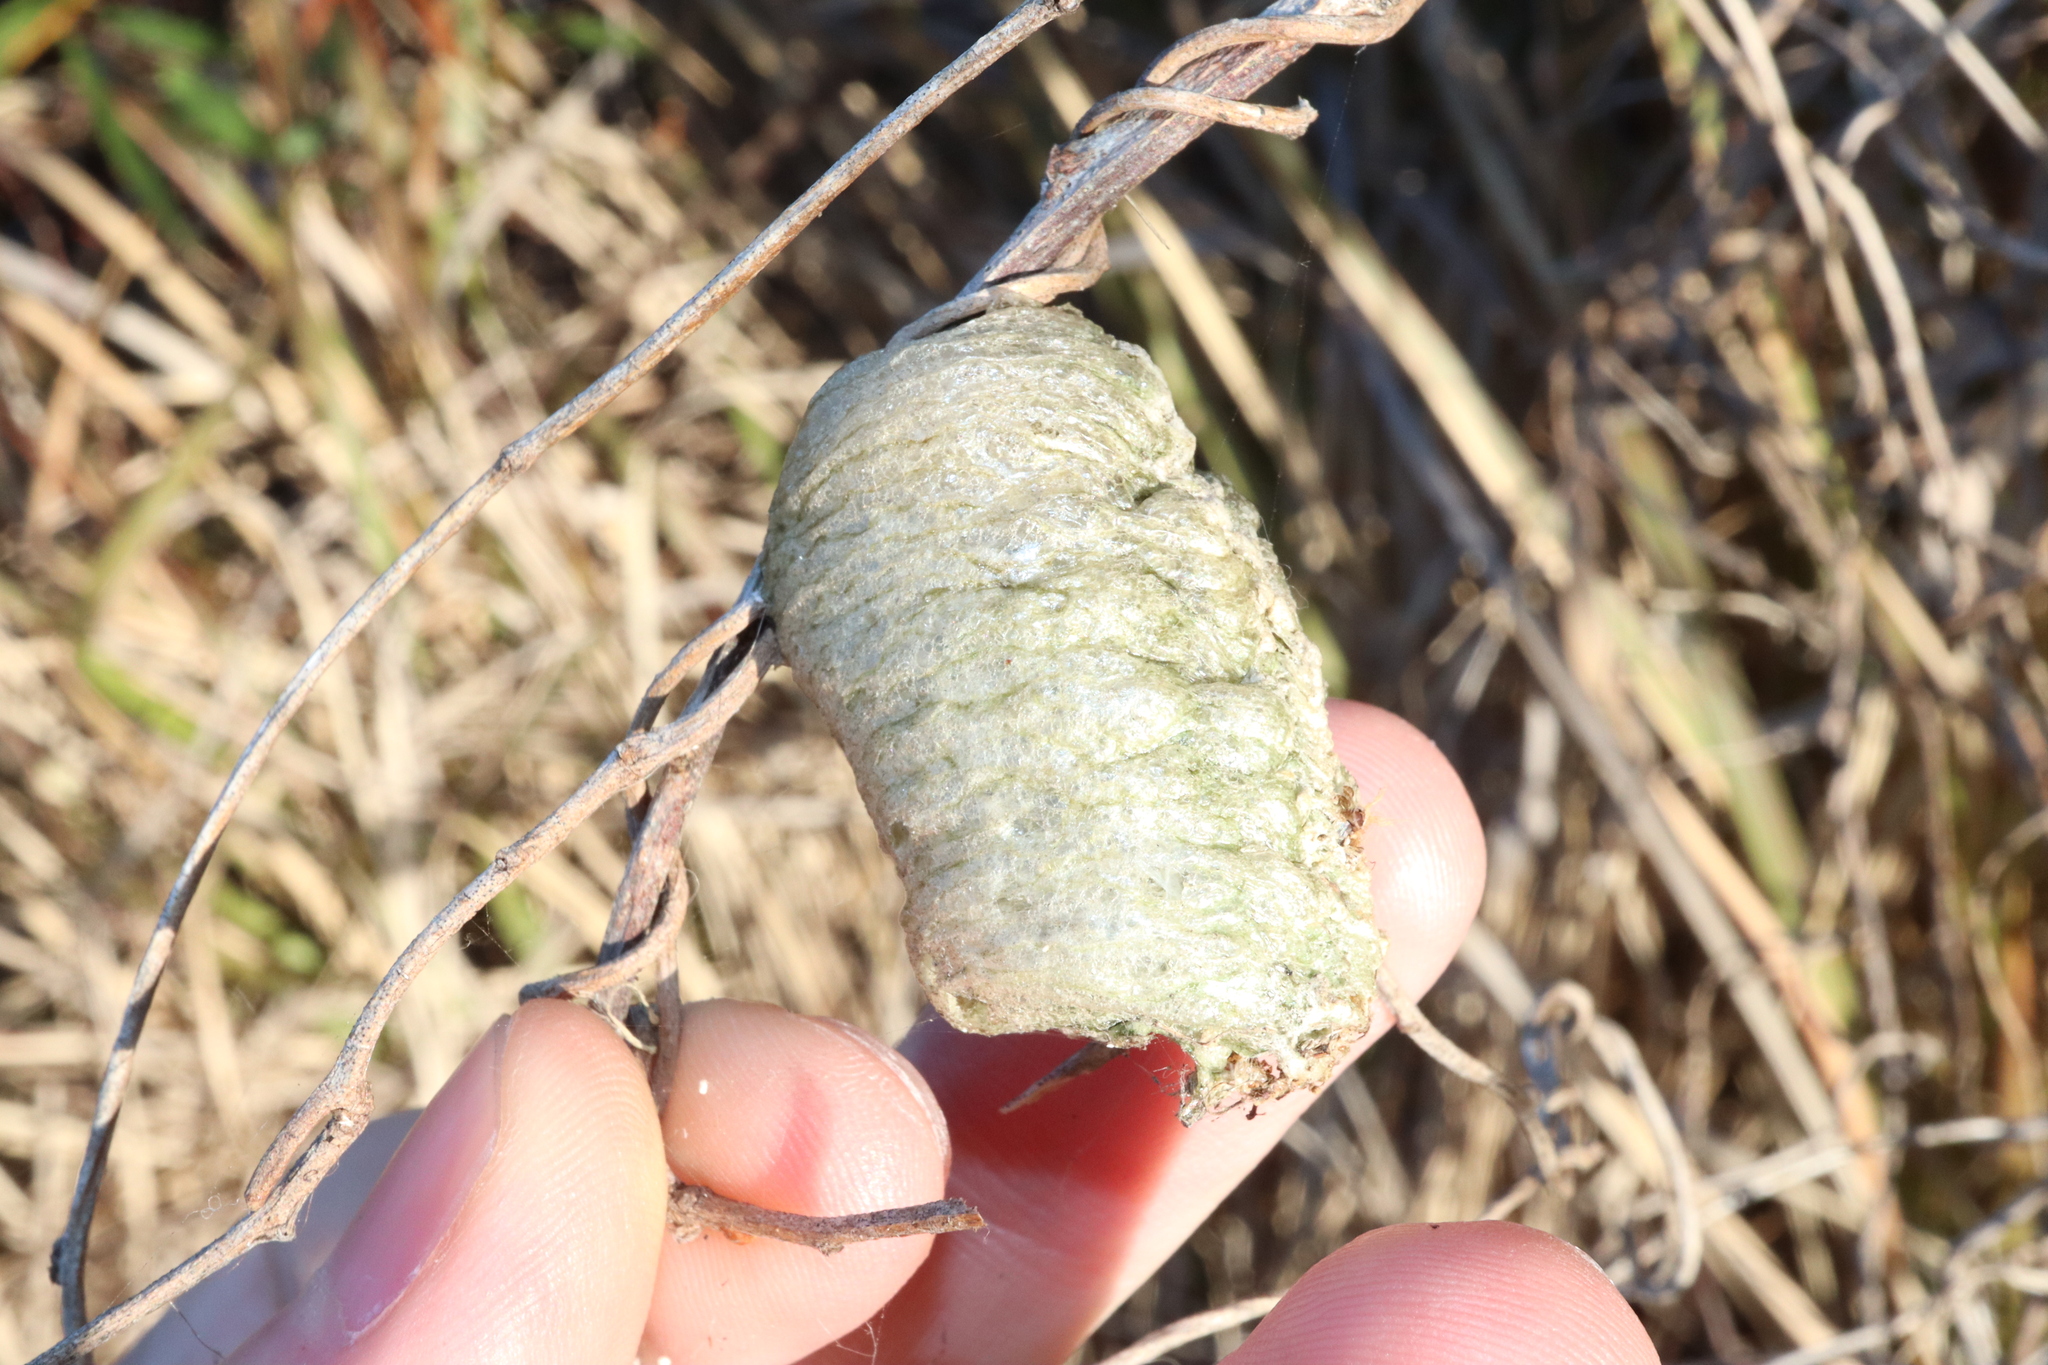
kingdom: Animalia
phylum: Arthropoda
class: Insecta
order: Mantodea
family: Mantidae
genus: Archimantis
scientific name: Archimantis latistyla
